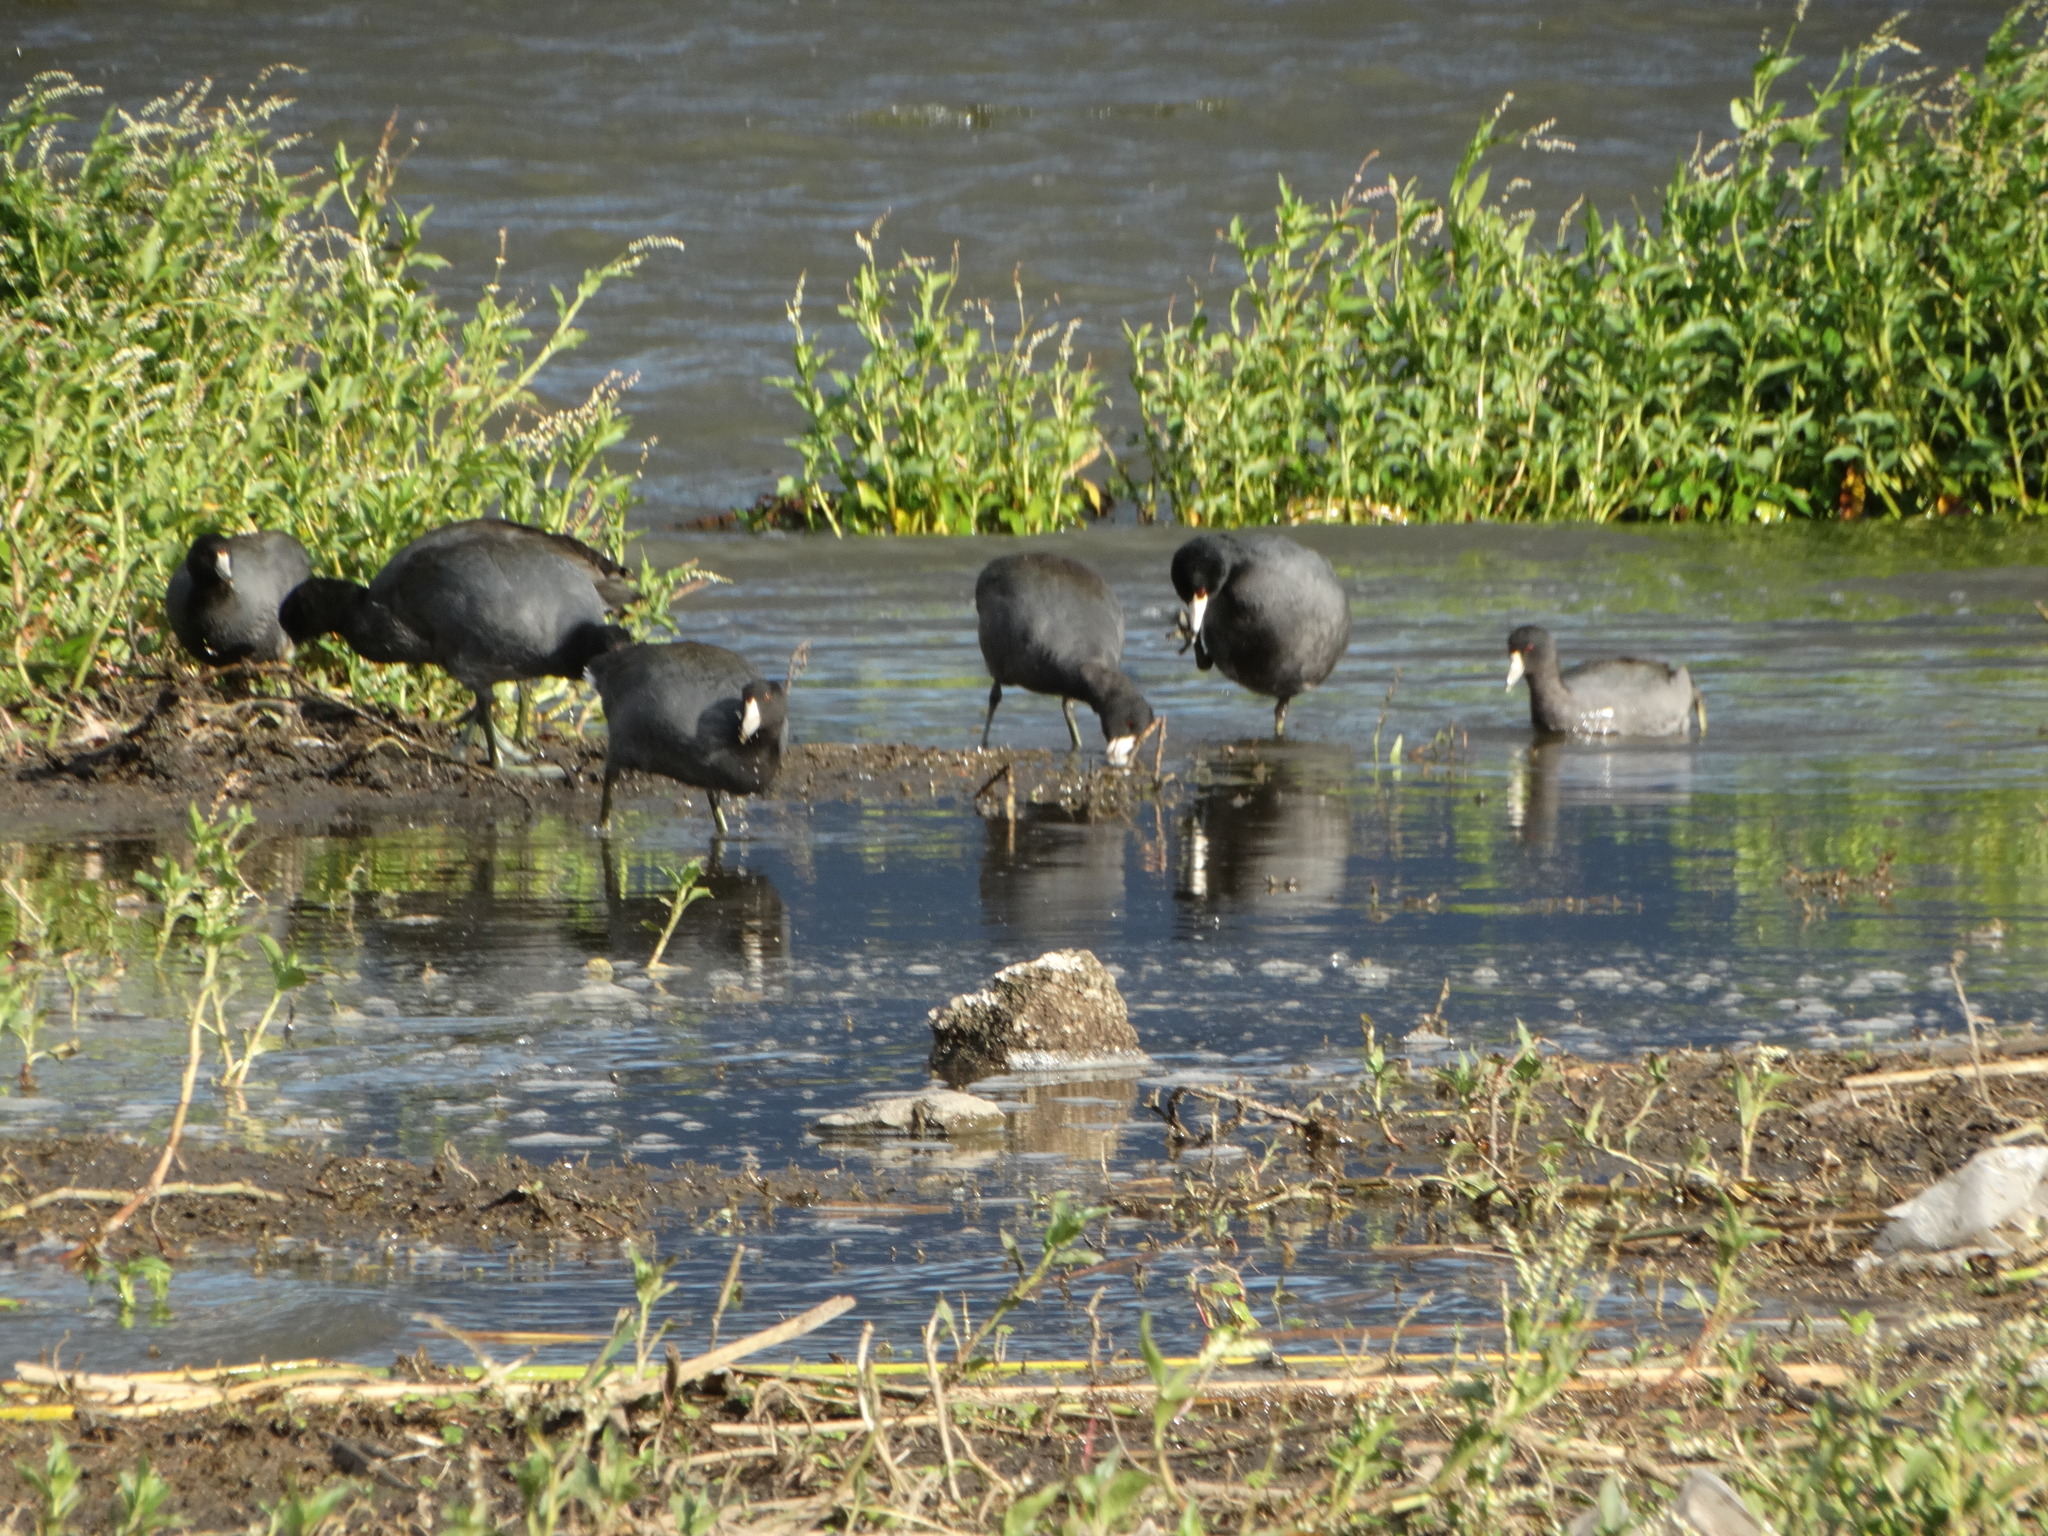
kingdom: Animalia
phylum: Chordata
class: Aves
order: Gruiformes
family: Rallidae
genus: Fulica
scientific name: Fulica americana
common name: American coot
